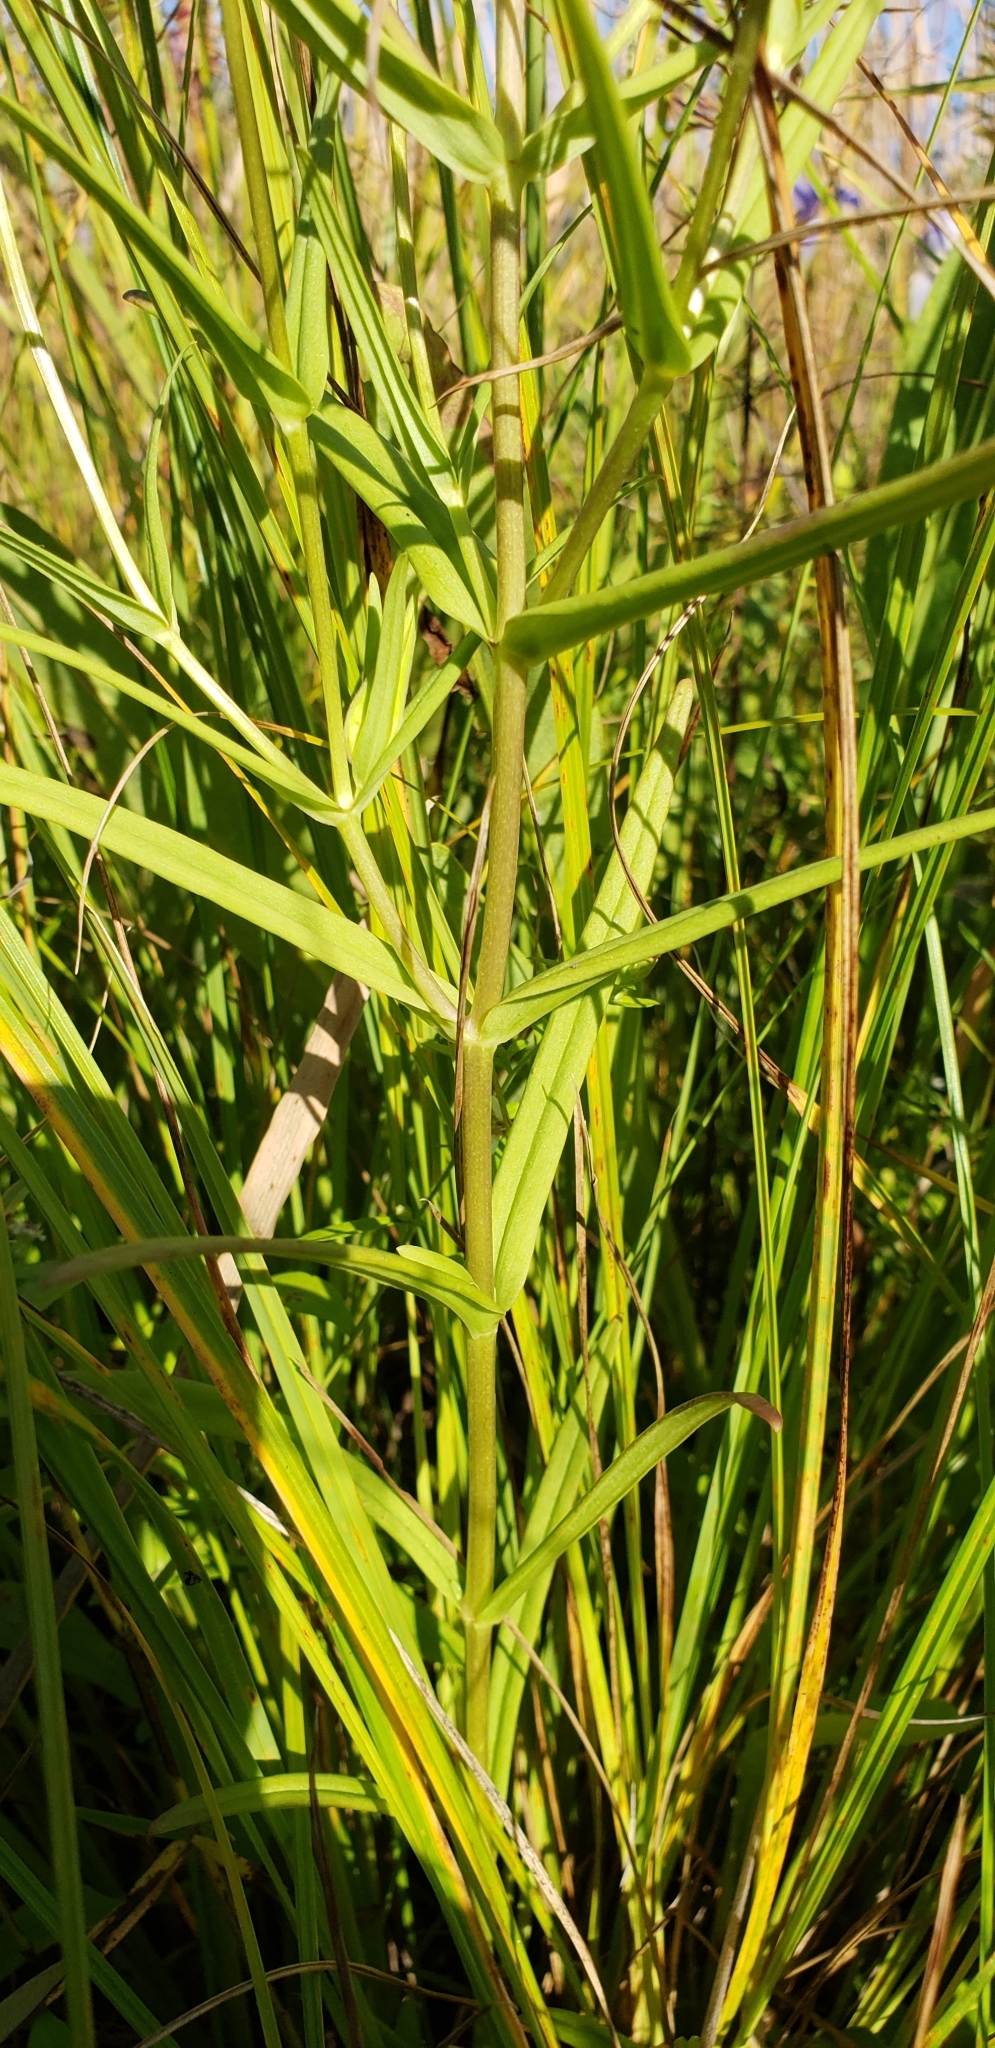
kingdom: Plantae
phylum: Tracheophyta
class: Magnoliopsida
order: Gentianales
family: Gentianaceae
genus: Gentianopsis
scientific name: Gentianopsis virgata
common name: Lesser fringed-gentian
